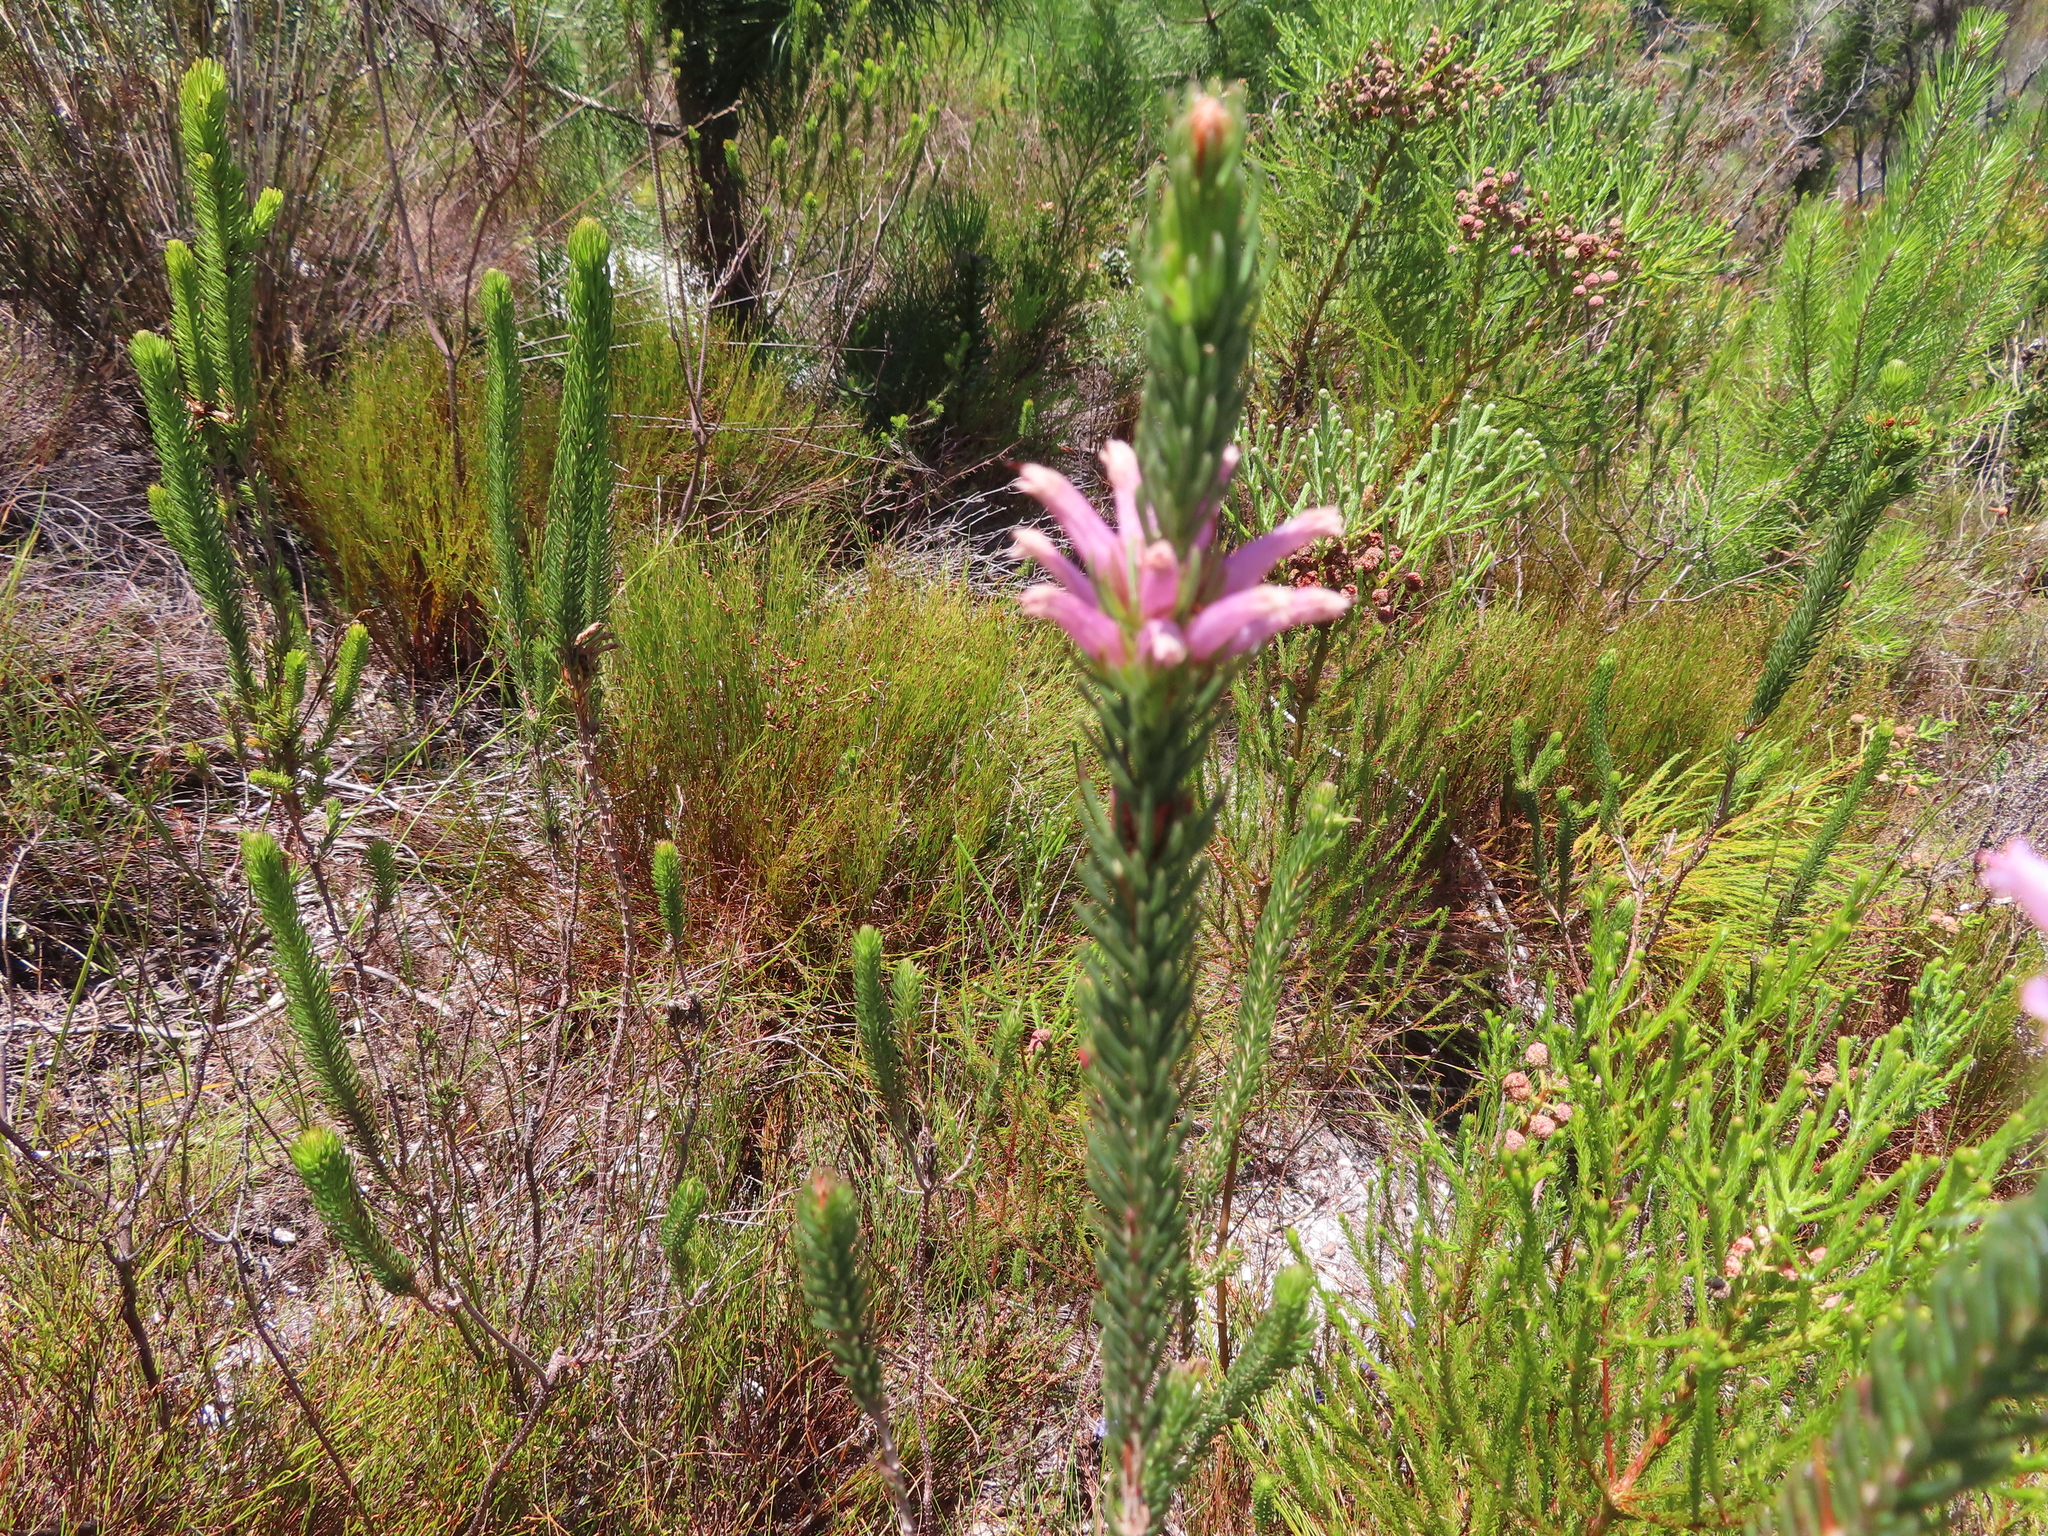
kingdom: Plantae
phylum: Tracheophyta
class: Magnoliopsida
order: Ericales
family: Ericaceae
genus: Erica
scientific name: Erica viscaria
